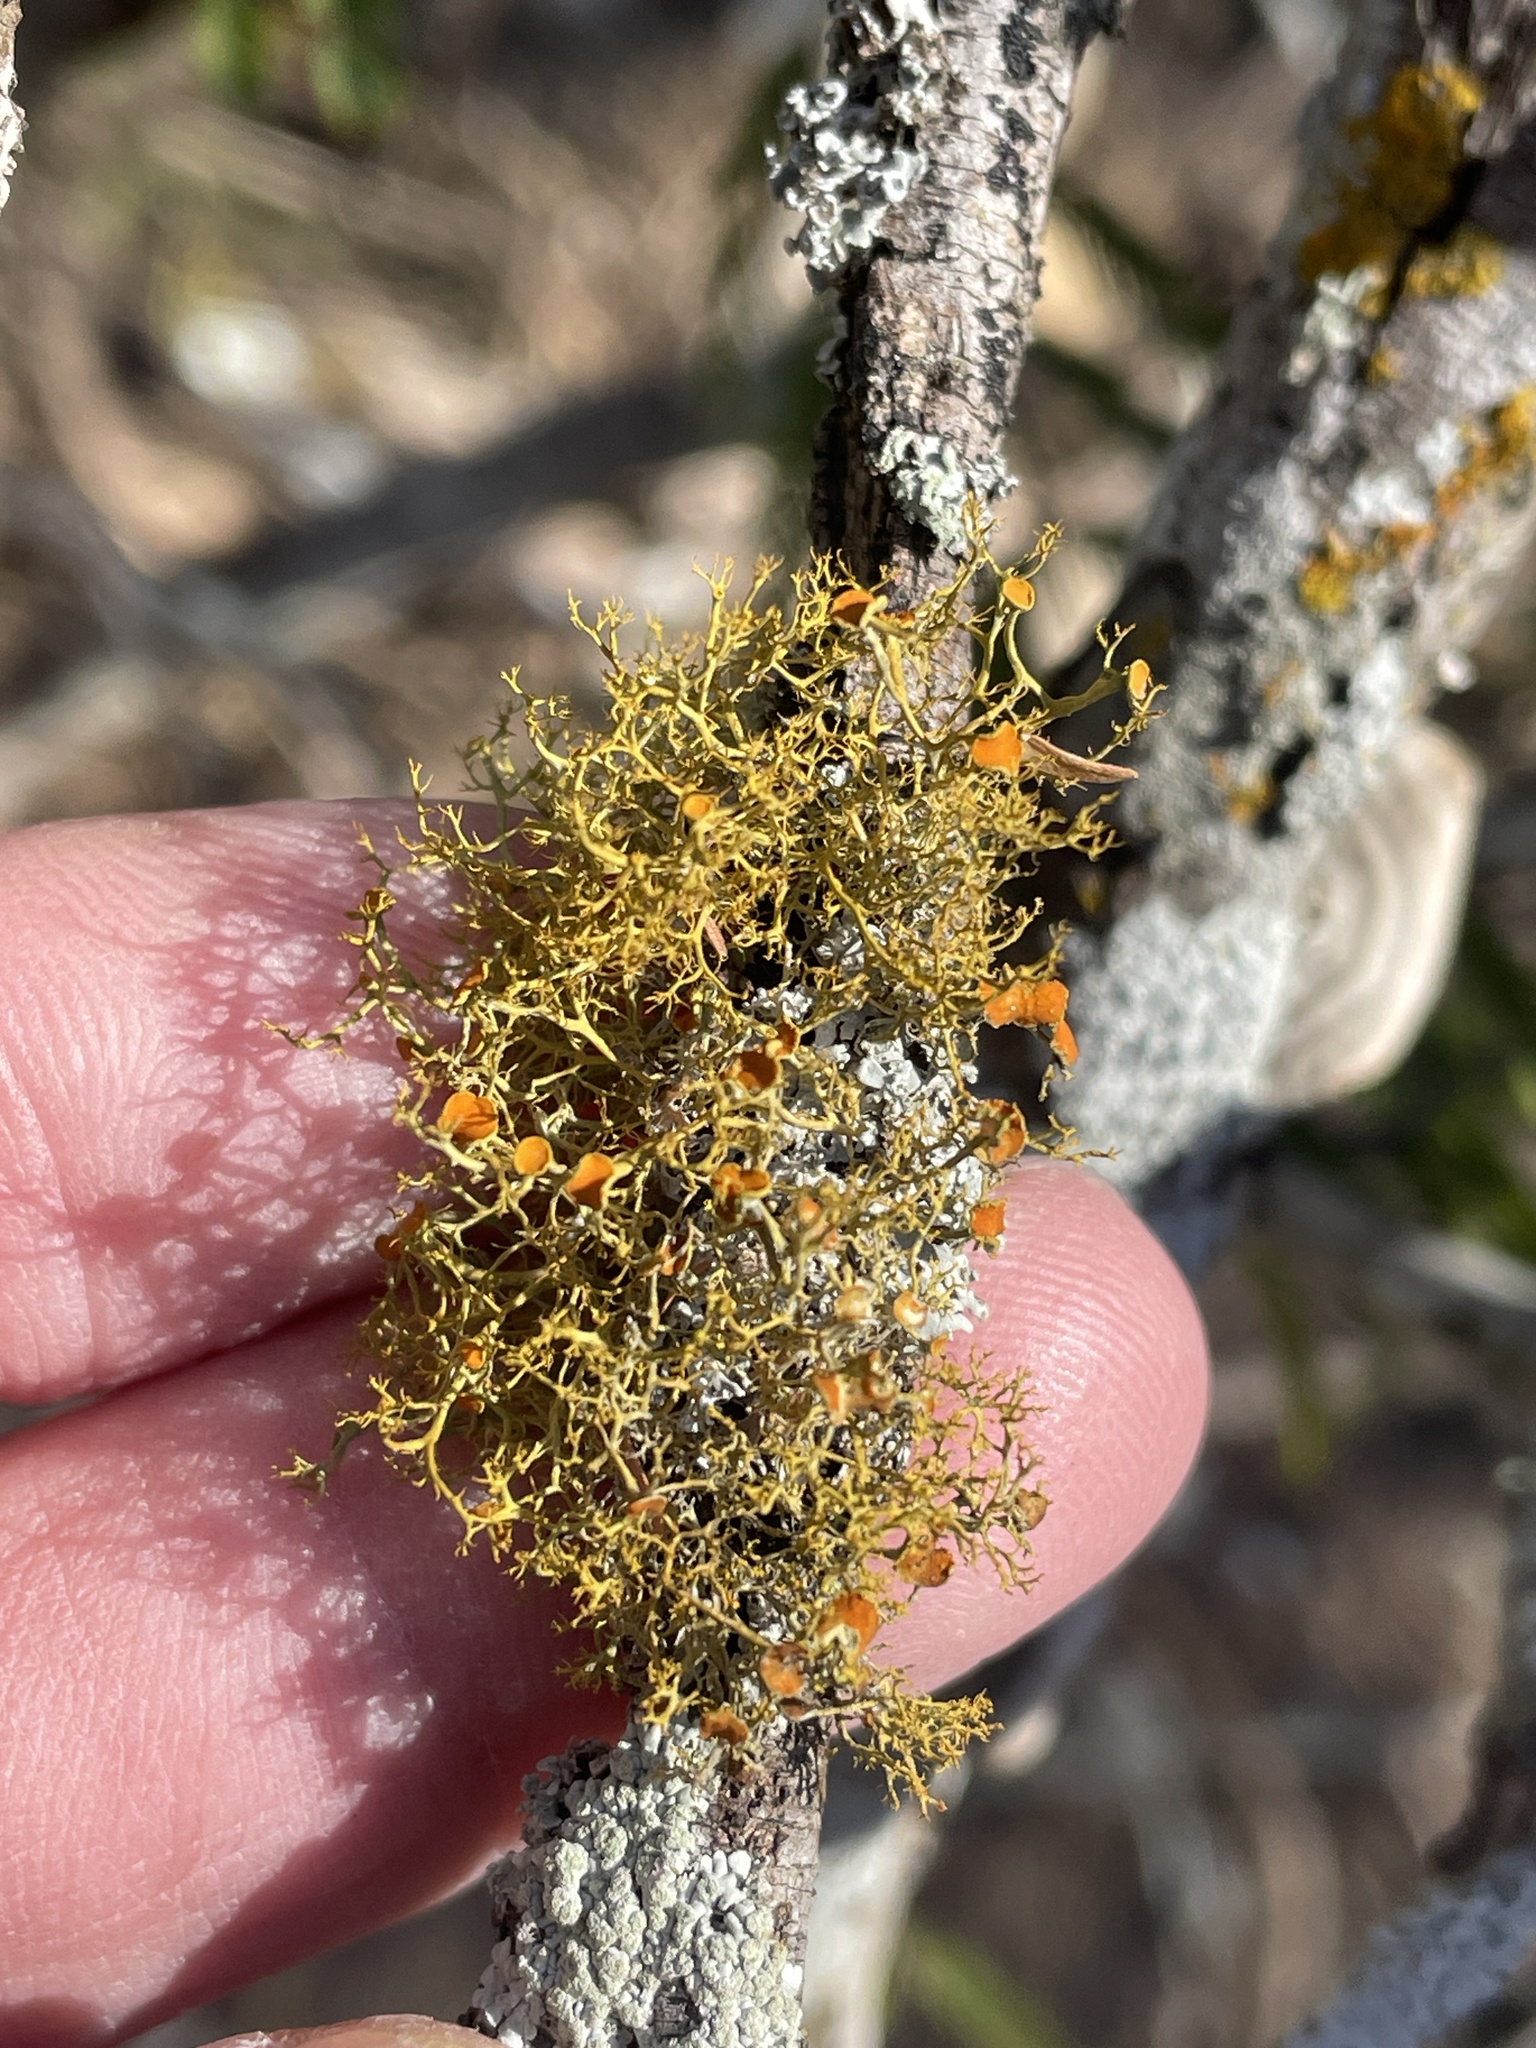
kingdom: Fungi
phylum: Ascomycota
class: Lecanoromycetes
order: Teloschistales
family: Teloschistaceae
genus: Teloschistes
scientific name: Teloschistes exilis
